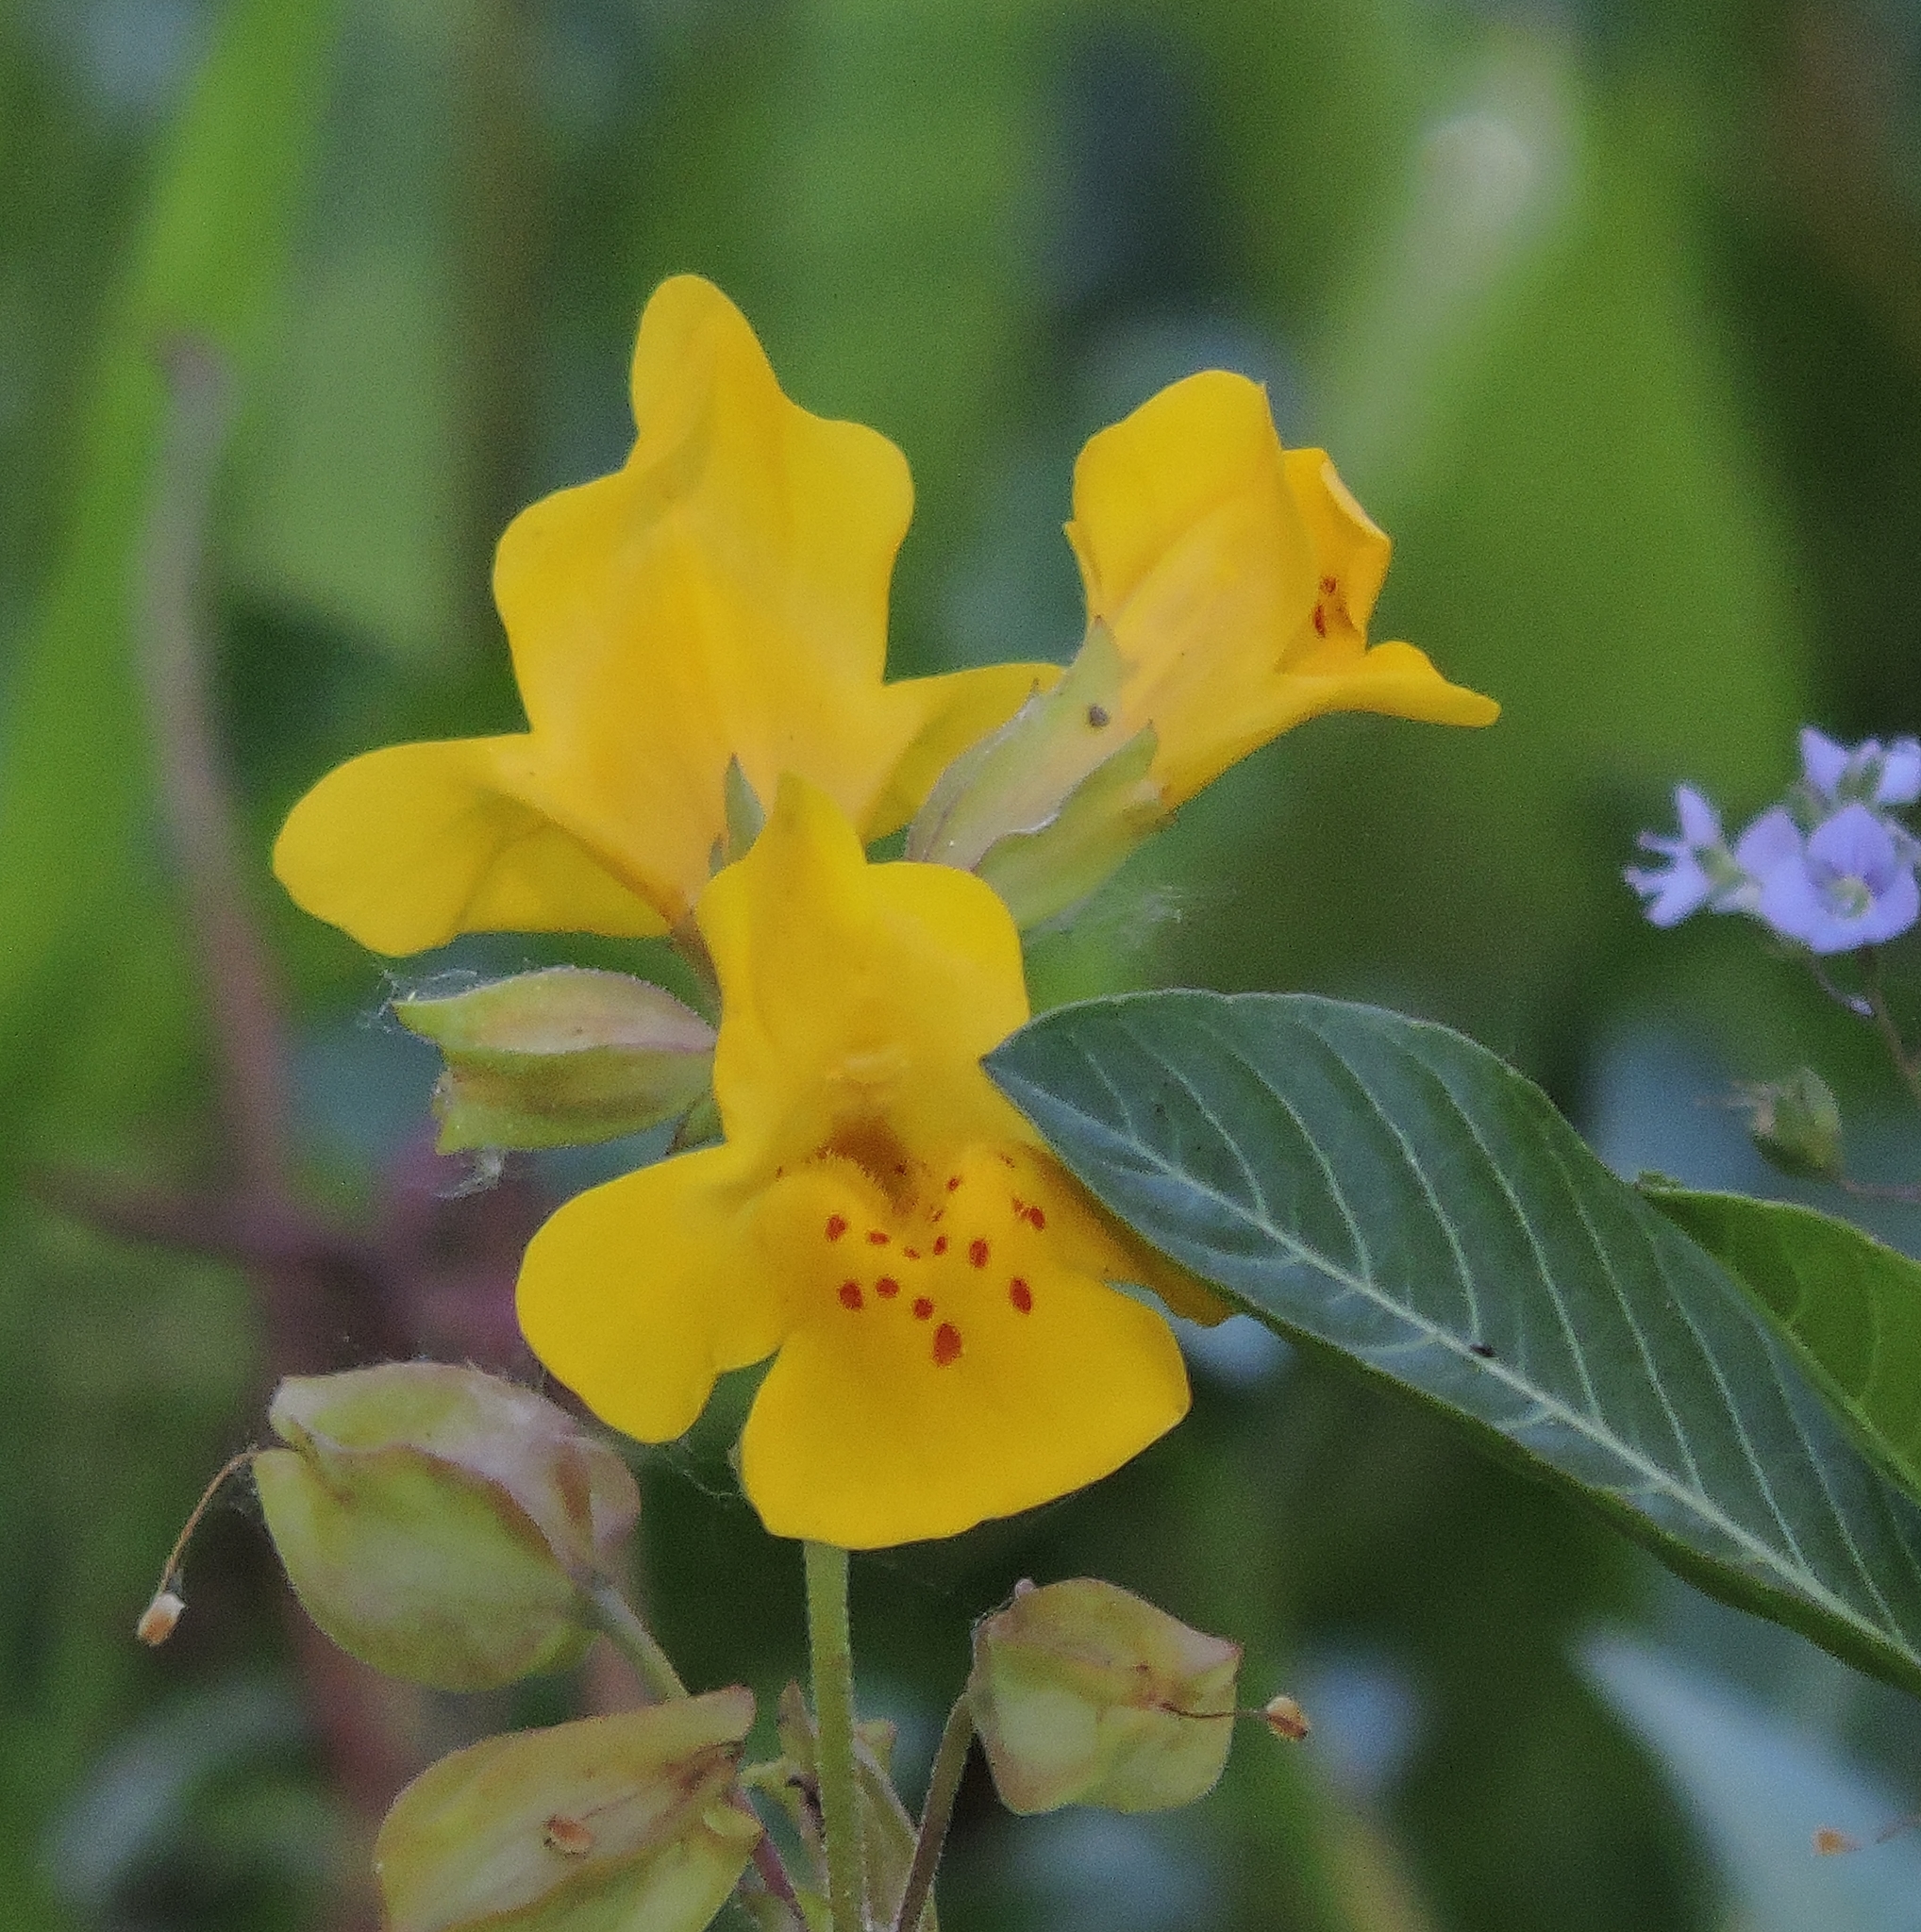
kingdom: Plantae
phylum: Tracheophyta
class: Magnoliopsida
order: Lamiales
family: Phrymaceae
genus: Erythranthe
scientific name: Erythranthe guttata
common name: Monkeyflower
